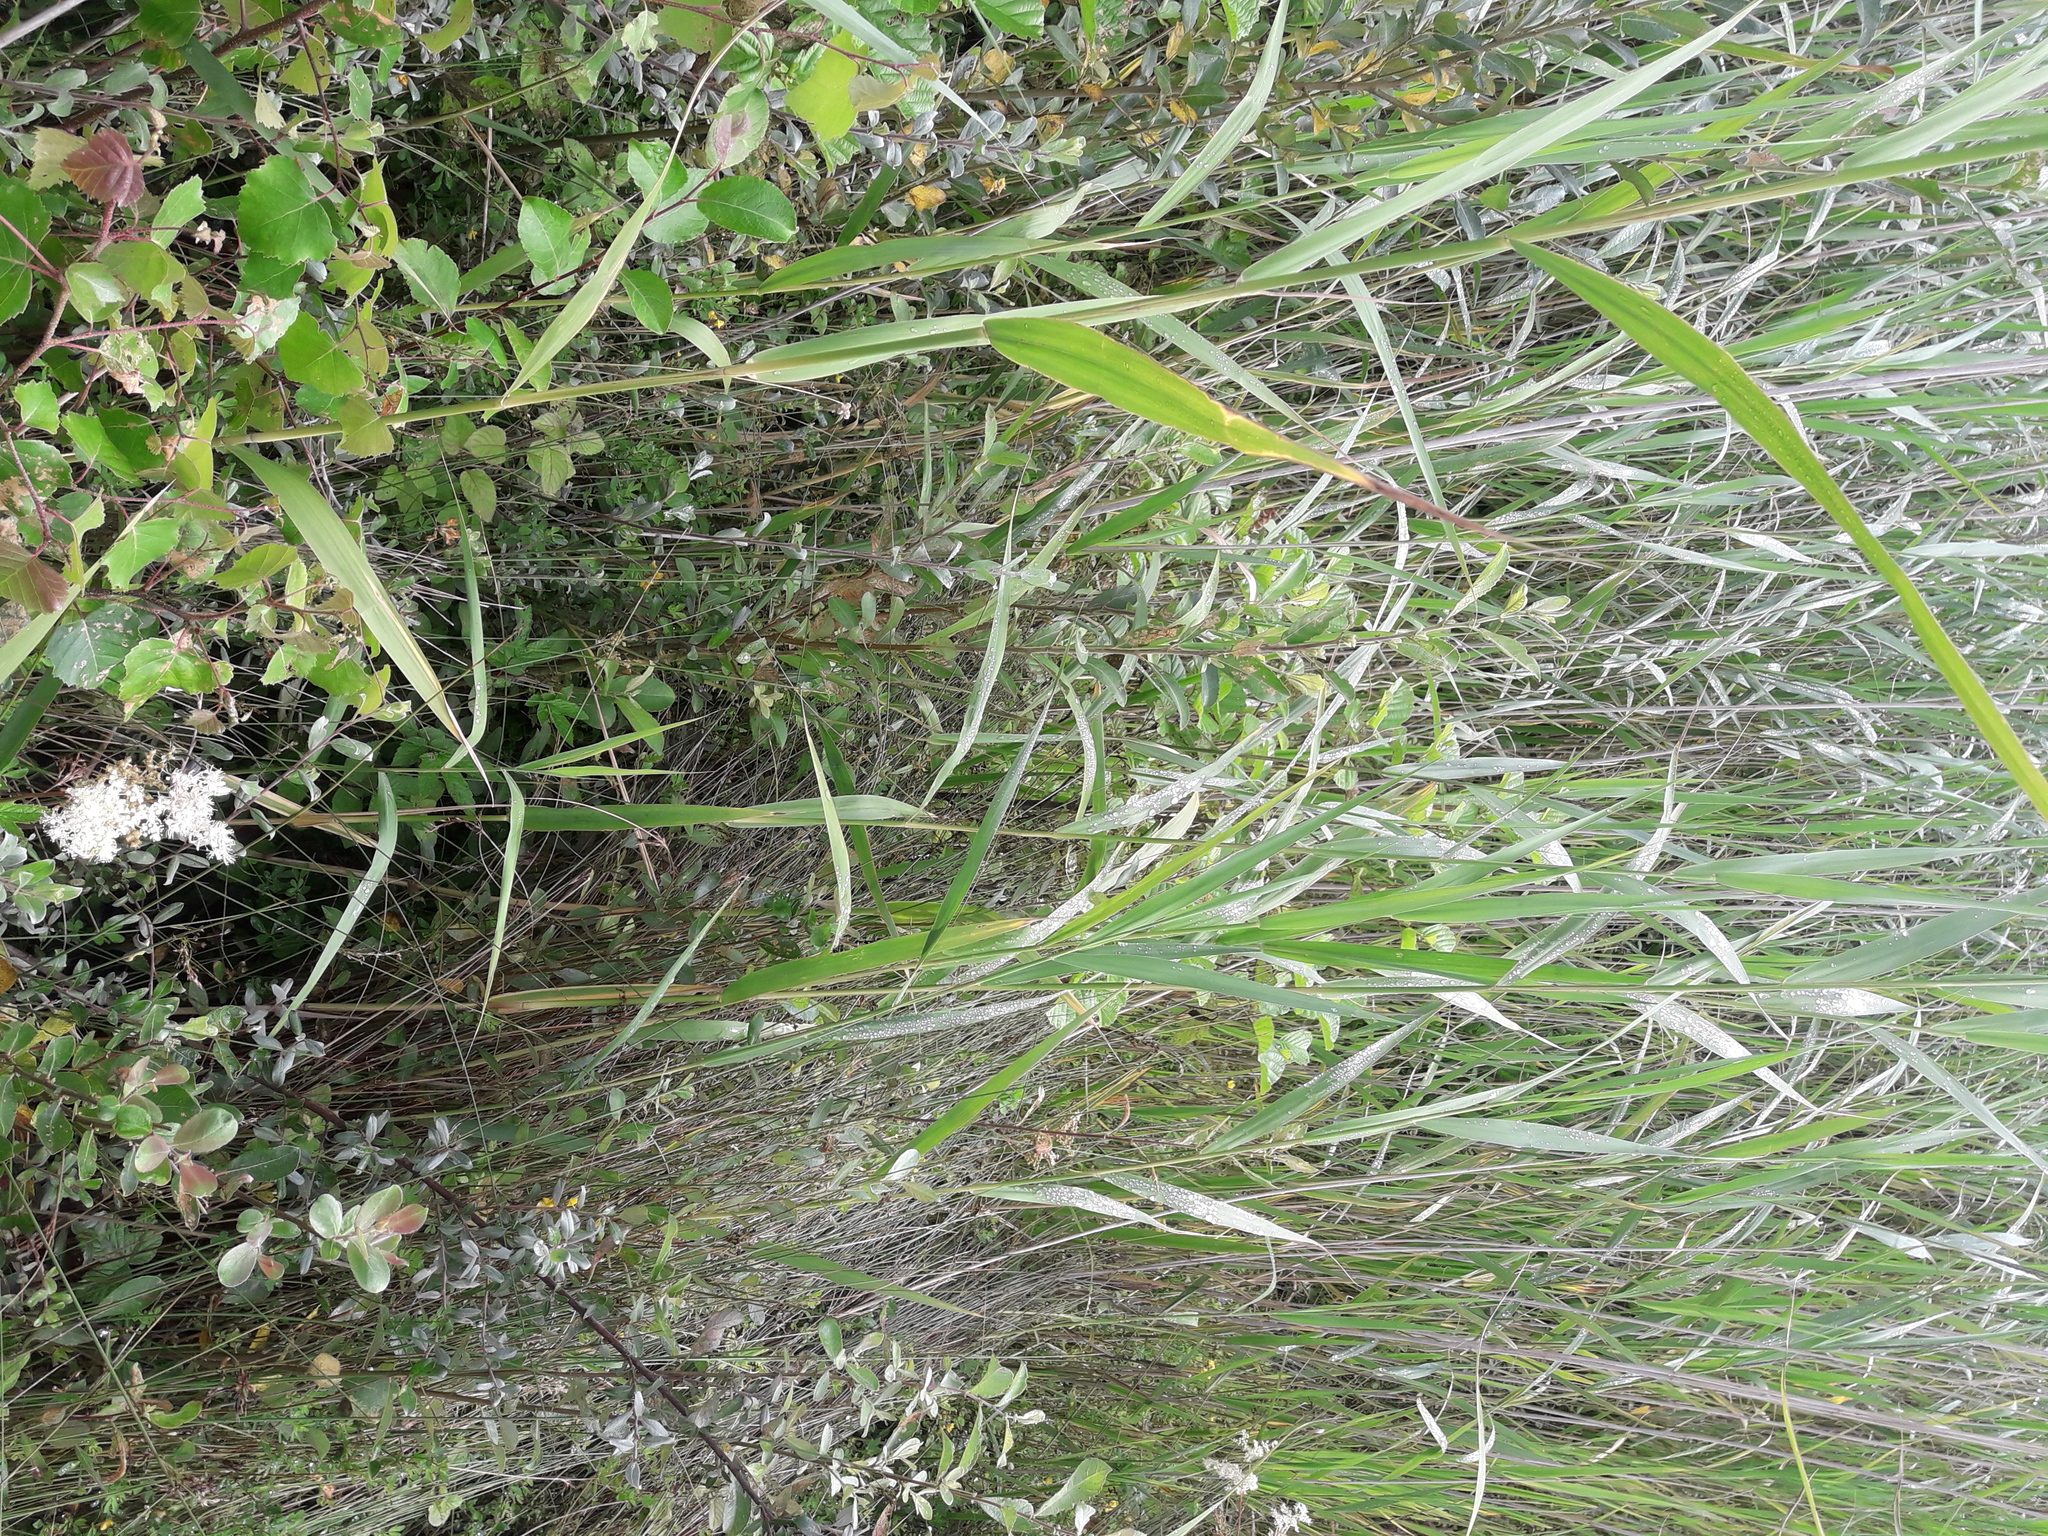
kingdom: Plantae
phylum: Tracheophyta
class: Magnoliopsida
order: Rosales
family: Rosaceae
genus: Filipendula
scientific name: Filipendula ulmaria
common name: Meadowsweet
